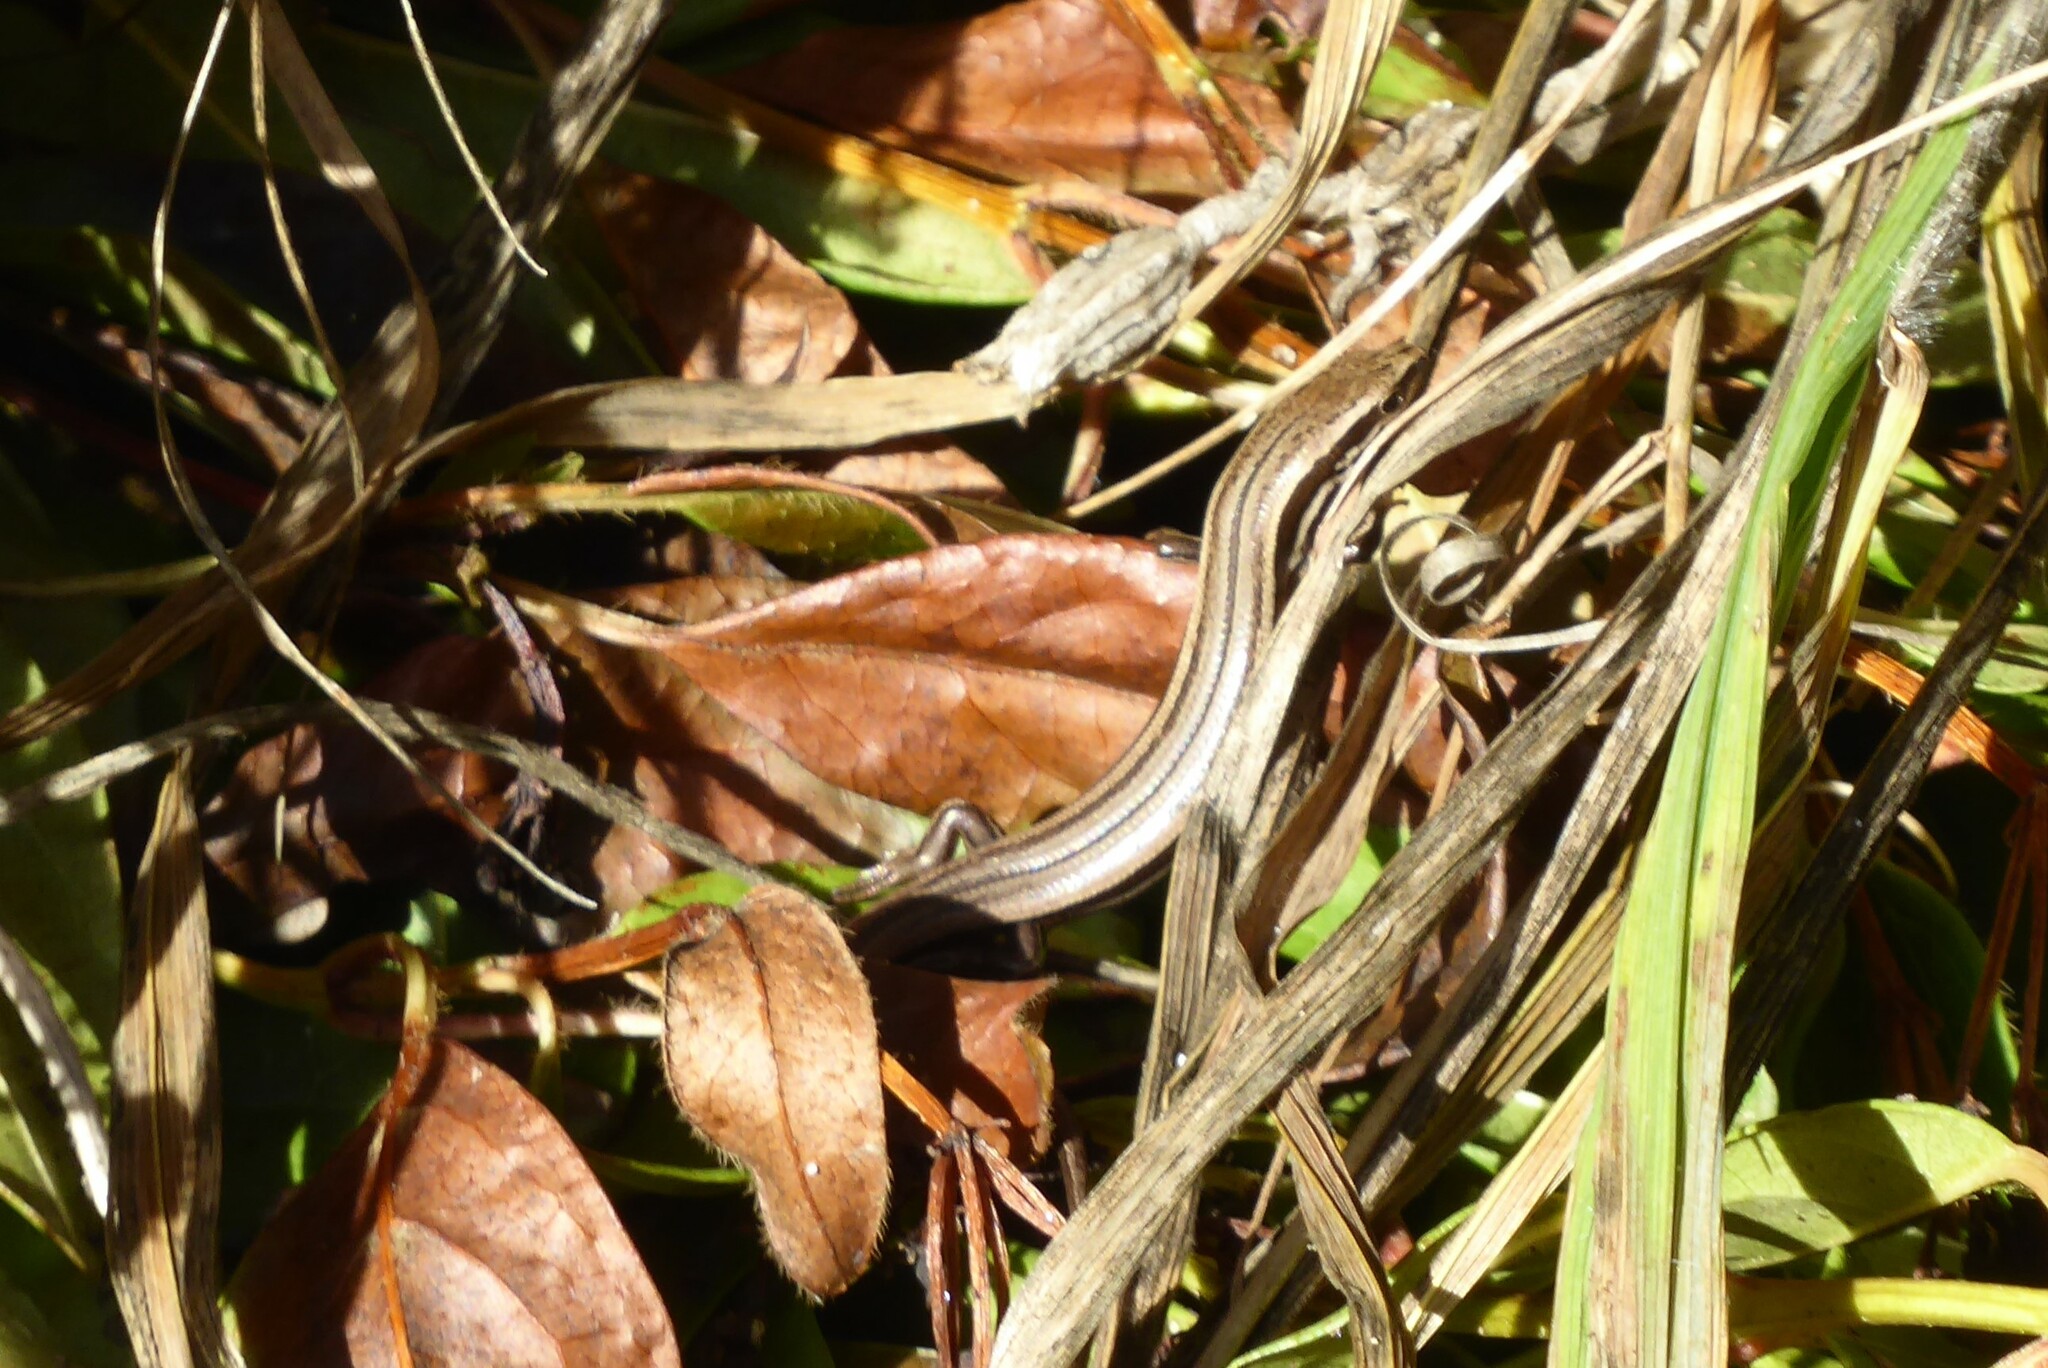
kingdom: Animalia
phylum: Chordata
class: Squamata
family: Scincidae
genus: Oligosoma
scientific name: Oligosoma polychroma
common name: Common new zealand skink
